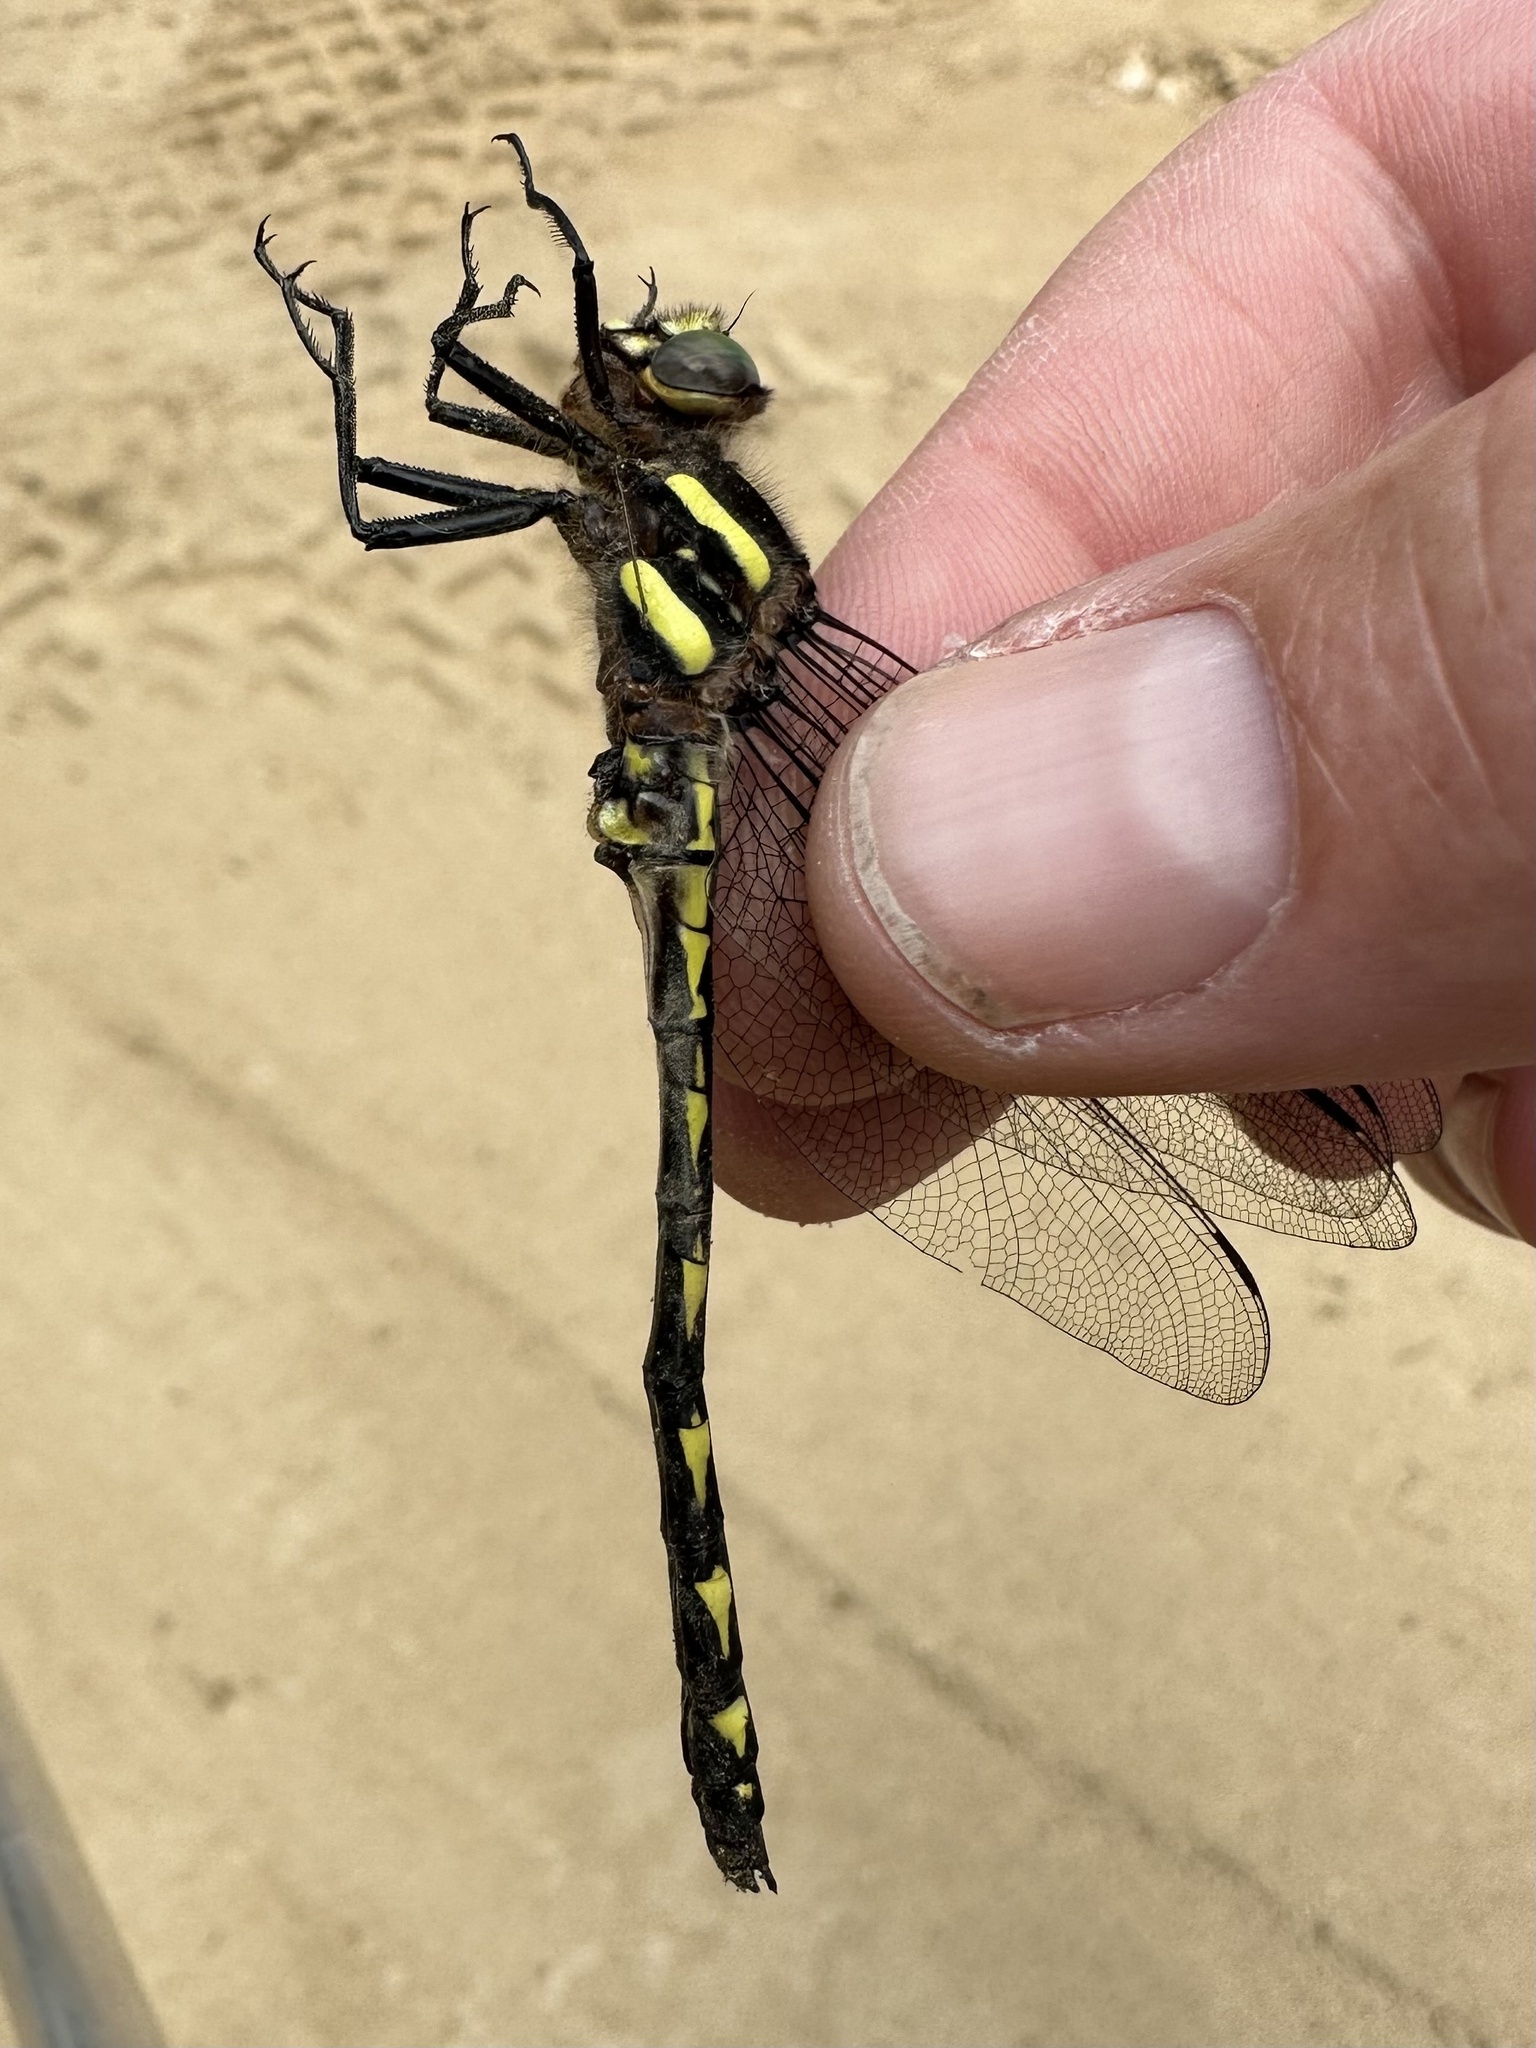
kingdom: Animalia
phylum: Arthropoda
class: Insecta
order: Odonata
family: Cordulegastridae
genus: Cordulegaster
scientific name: Cordulegaster diastatops
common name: Delta-spotted spiketail
